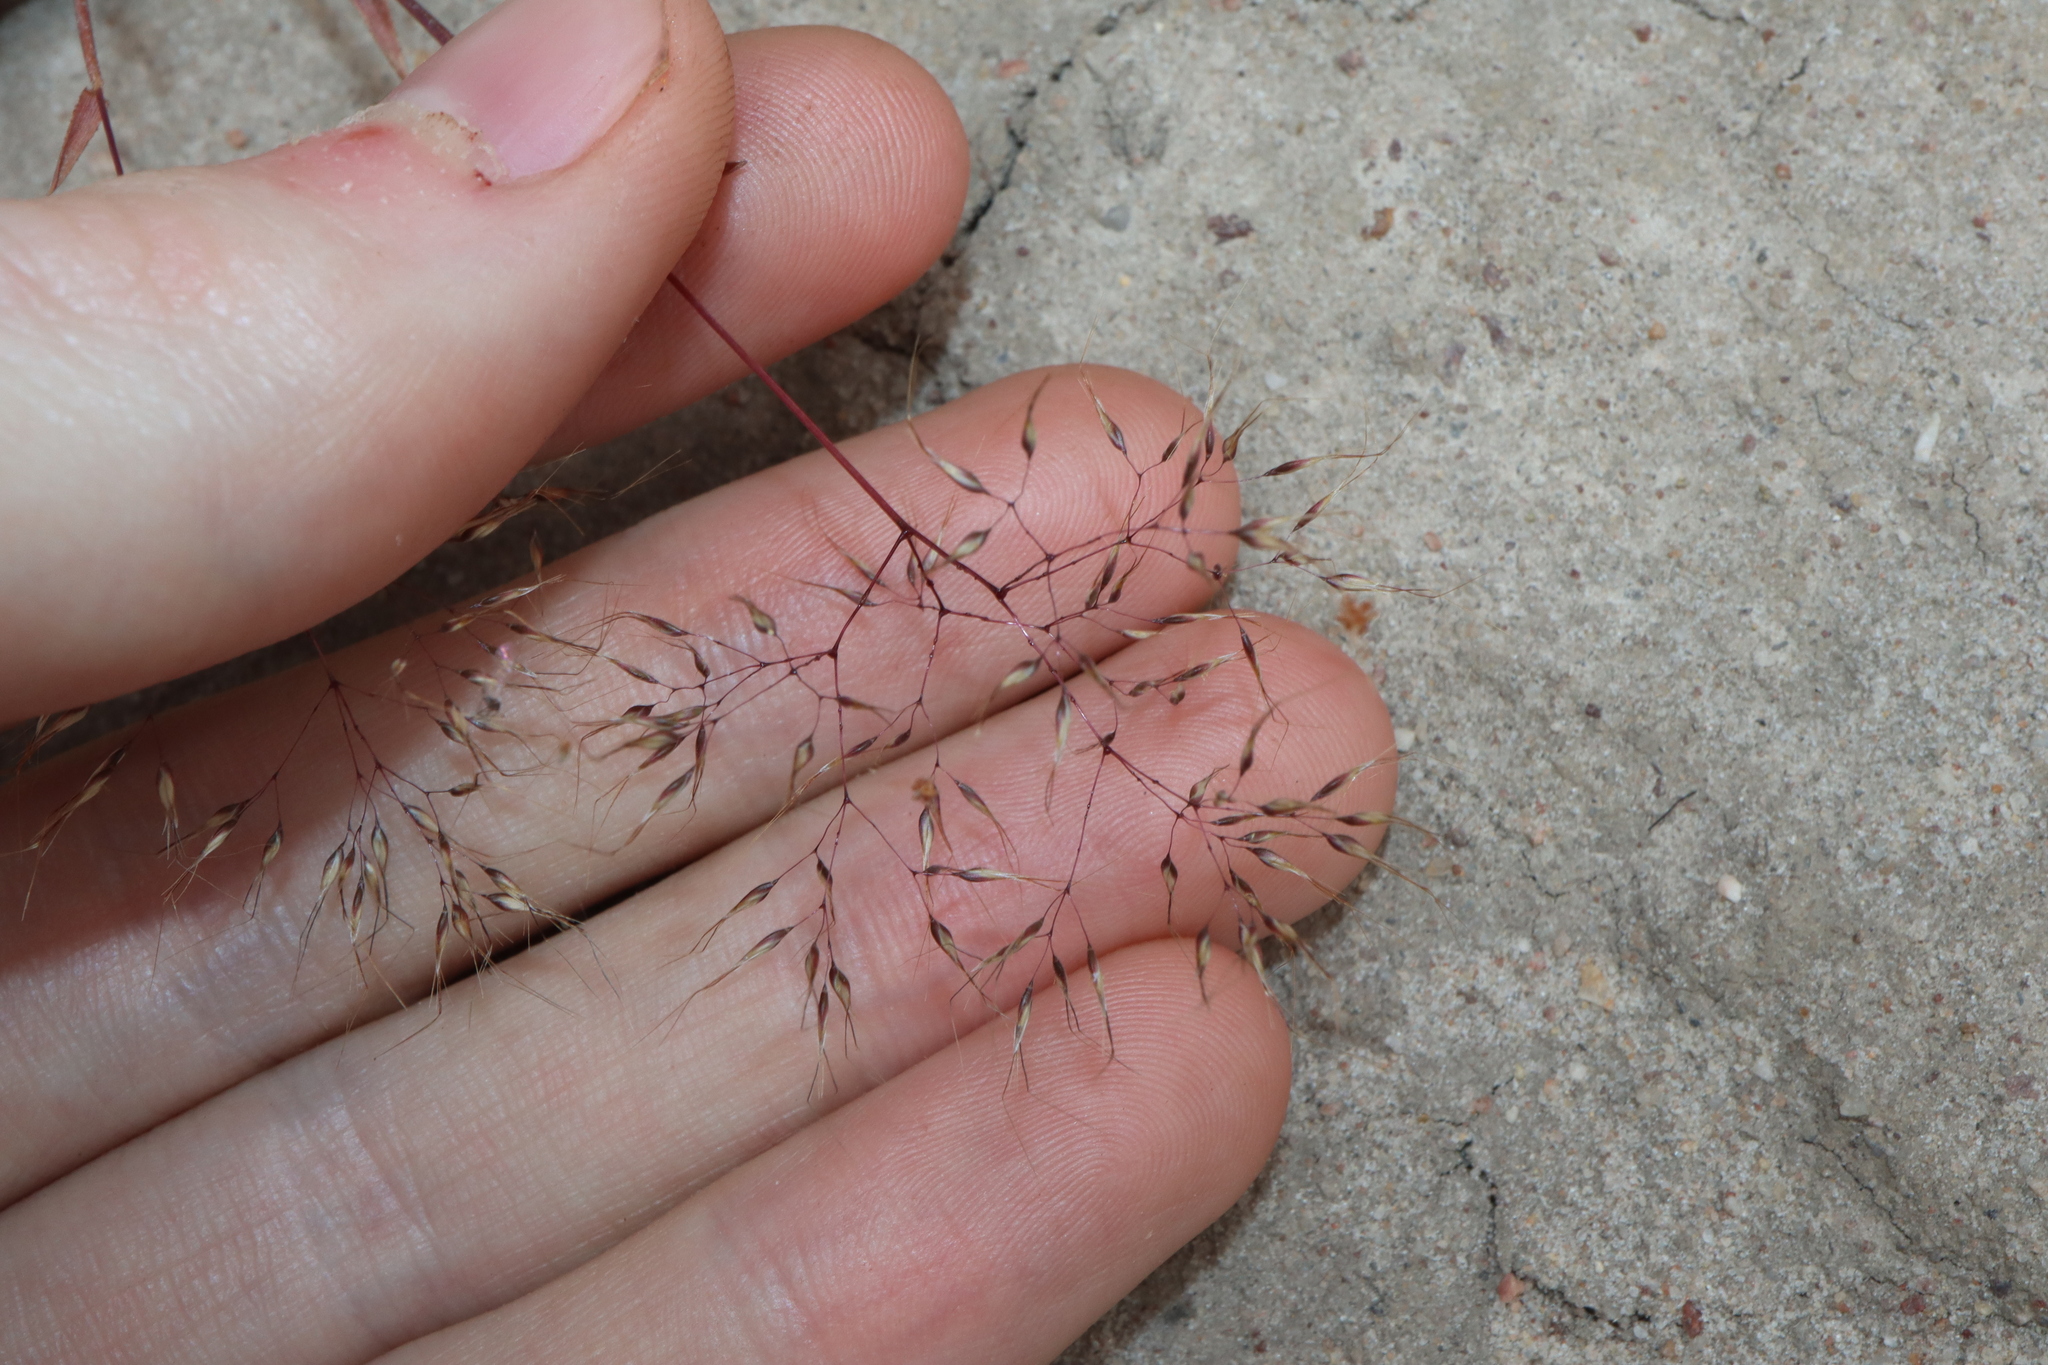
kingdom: Plantae
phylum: Tracheophyta
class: Liliopsida
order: Poales
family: Poaceae
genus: Pentameris
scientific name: Pentameris airoides
